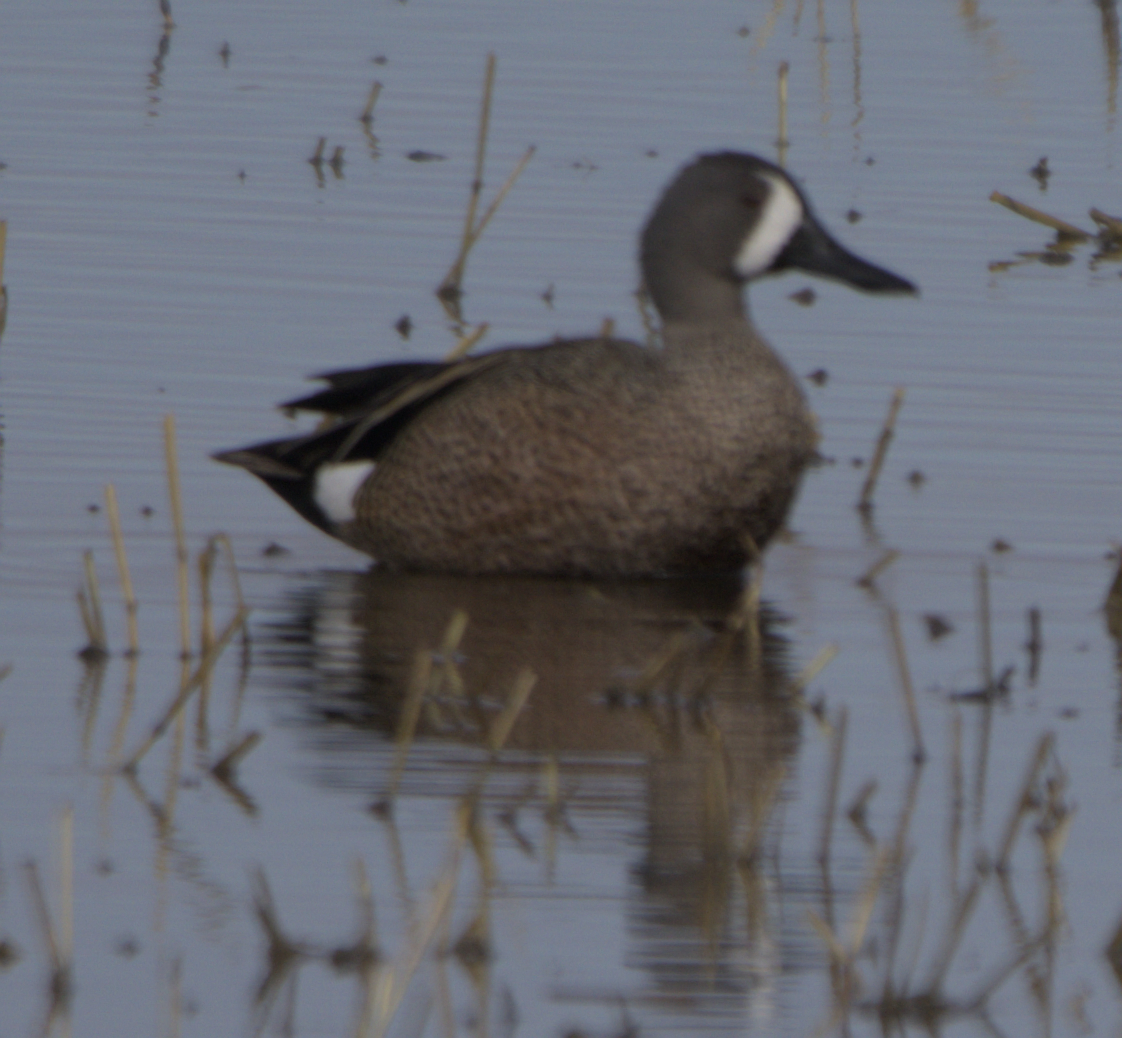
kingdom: Animalia
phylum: Chordata
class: Aves
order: Anseriformes
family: Anatidae
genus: Spatula
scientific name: Spatula discors
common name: Blue-winged teal
